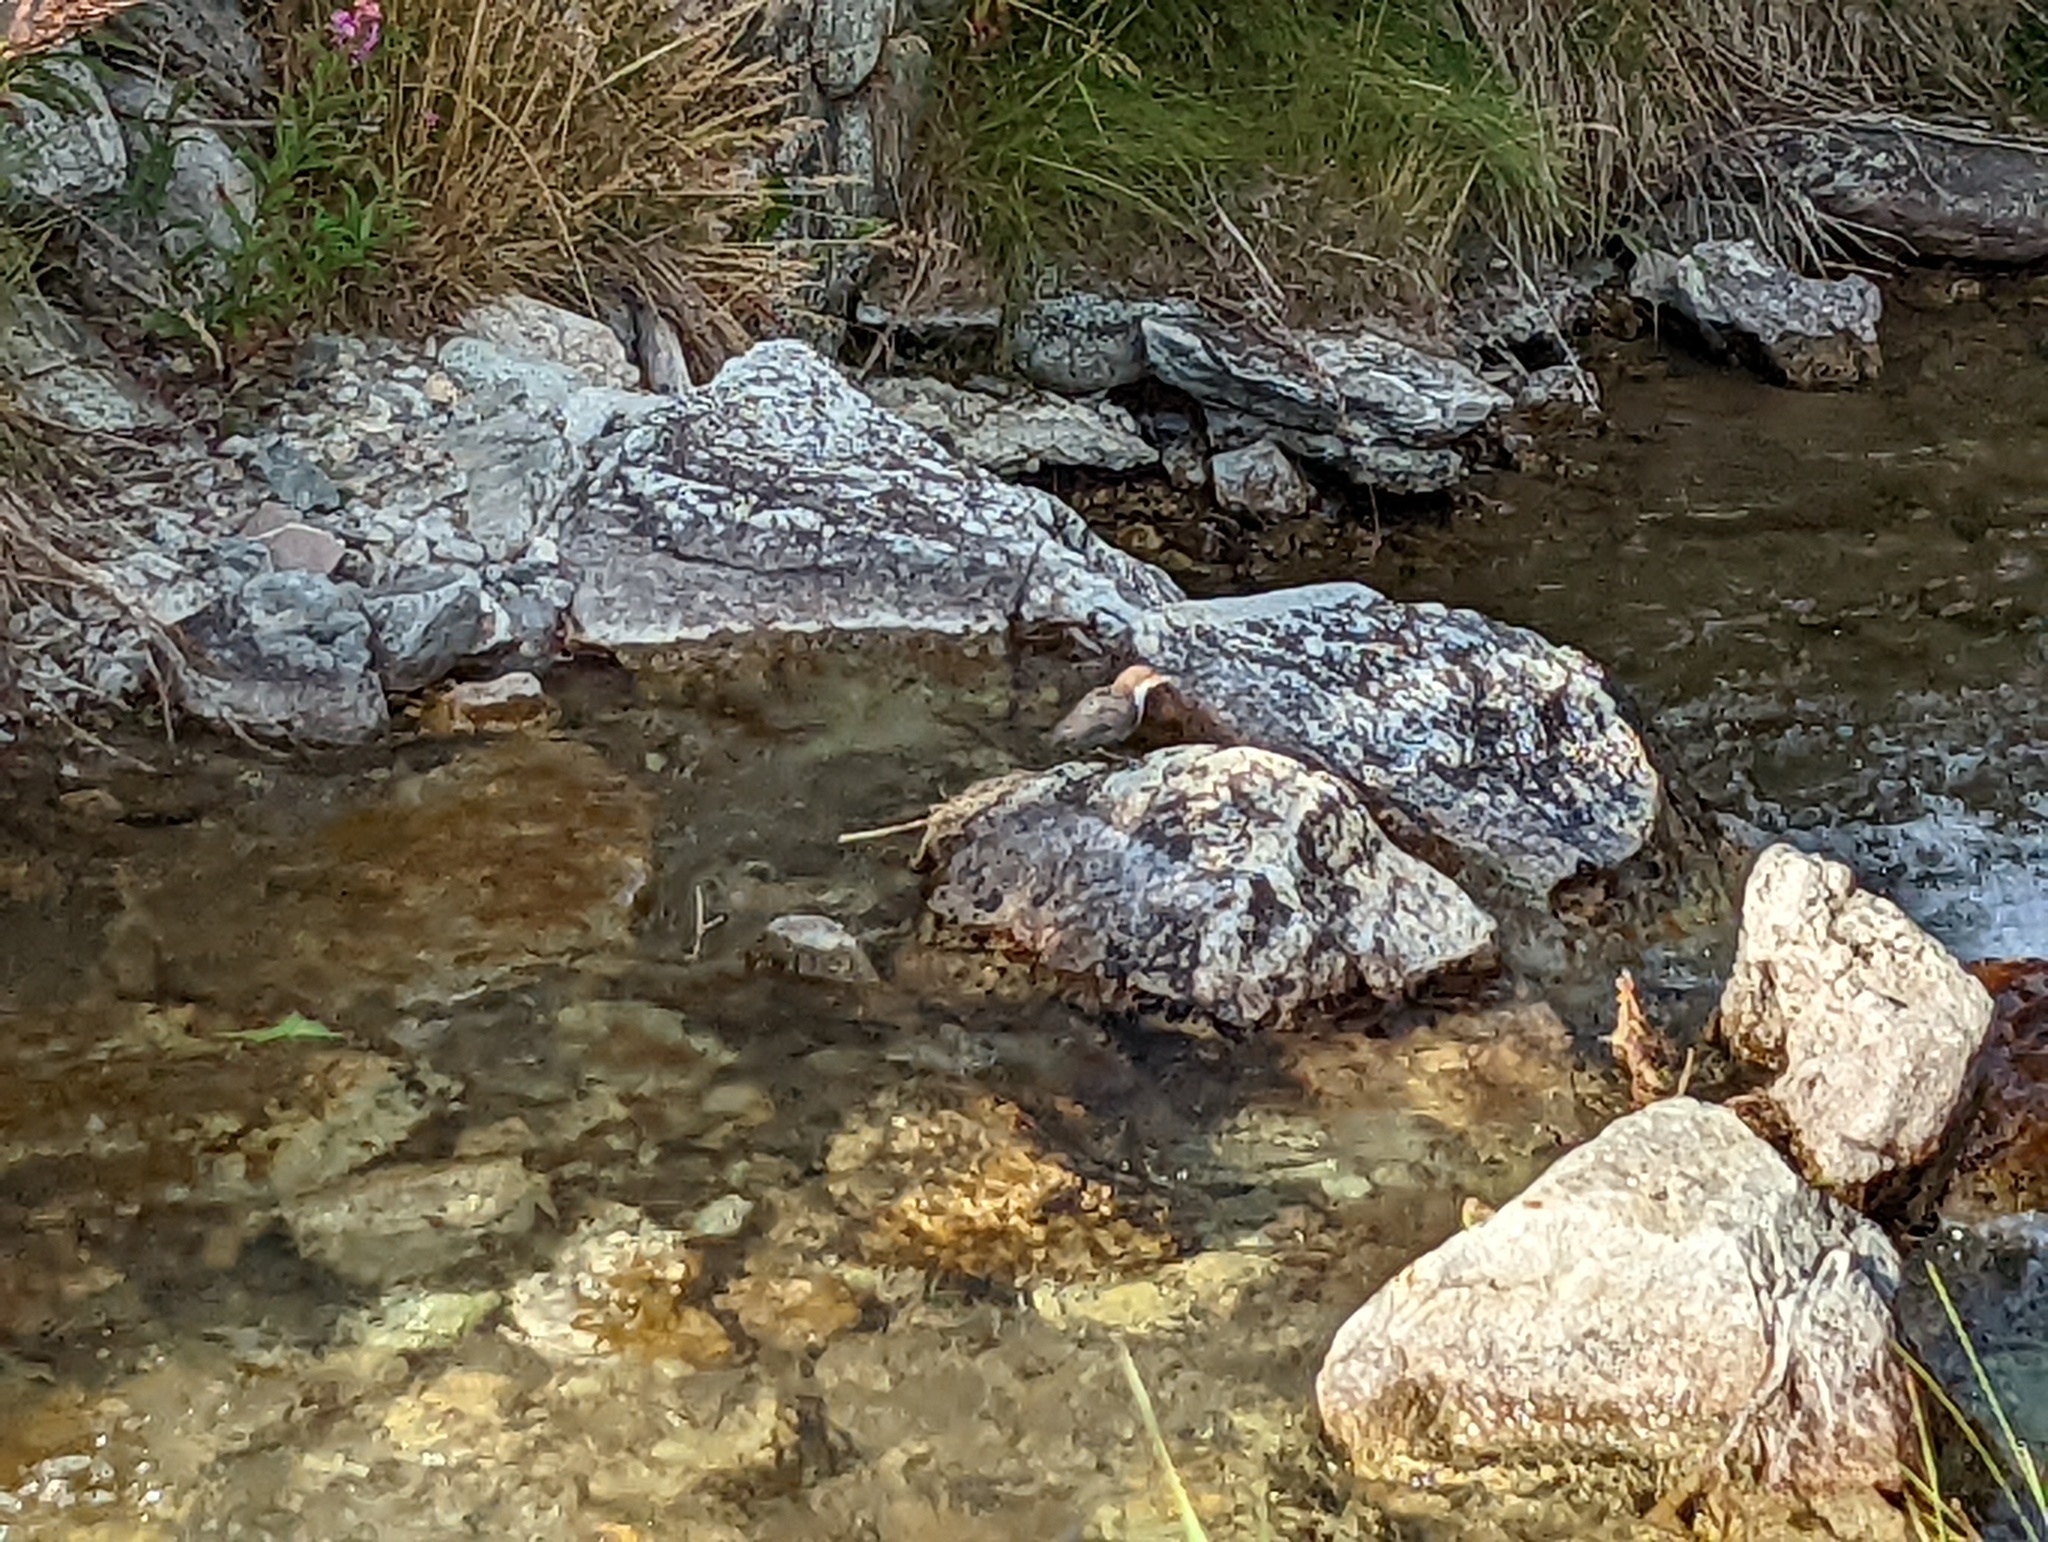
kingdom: Animalia
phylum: Chordata
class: Aves
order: Passeriformes
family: Cinclidae
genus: Cinclus
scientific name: Cinclus cinclus
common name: White-throated dipper
